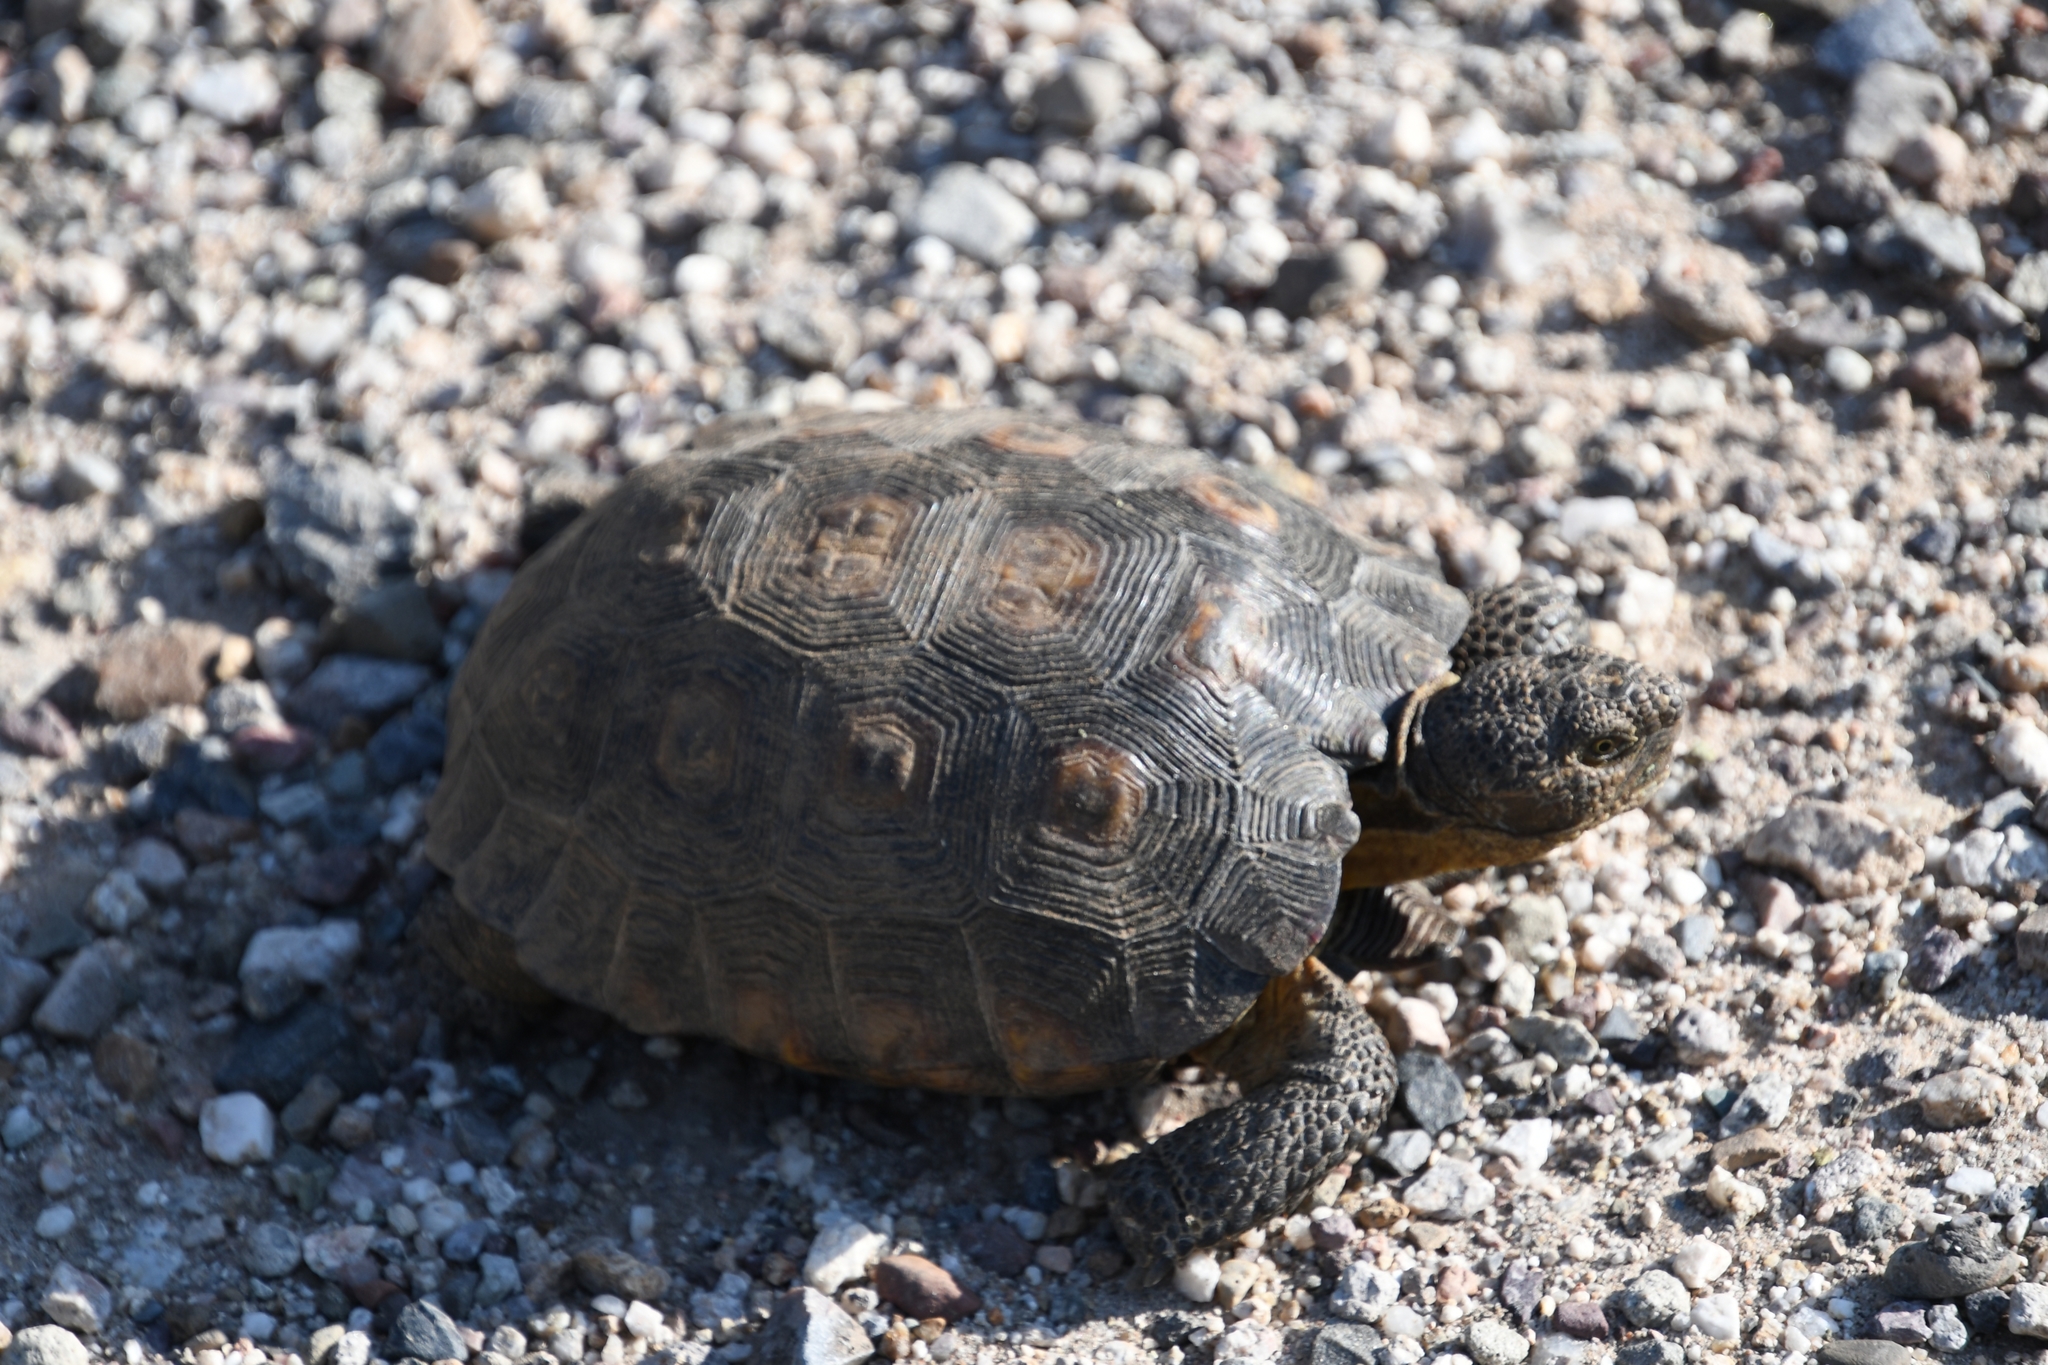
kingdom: Animalia
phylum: Chordata
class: Testudines
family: Testudinidae
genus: Gopherus
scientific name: Gopherus morafkai
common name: Sonoran desert tortoise
